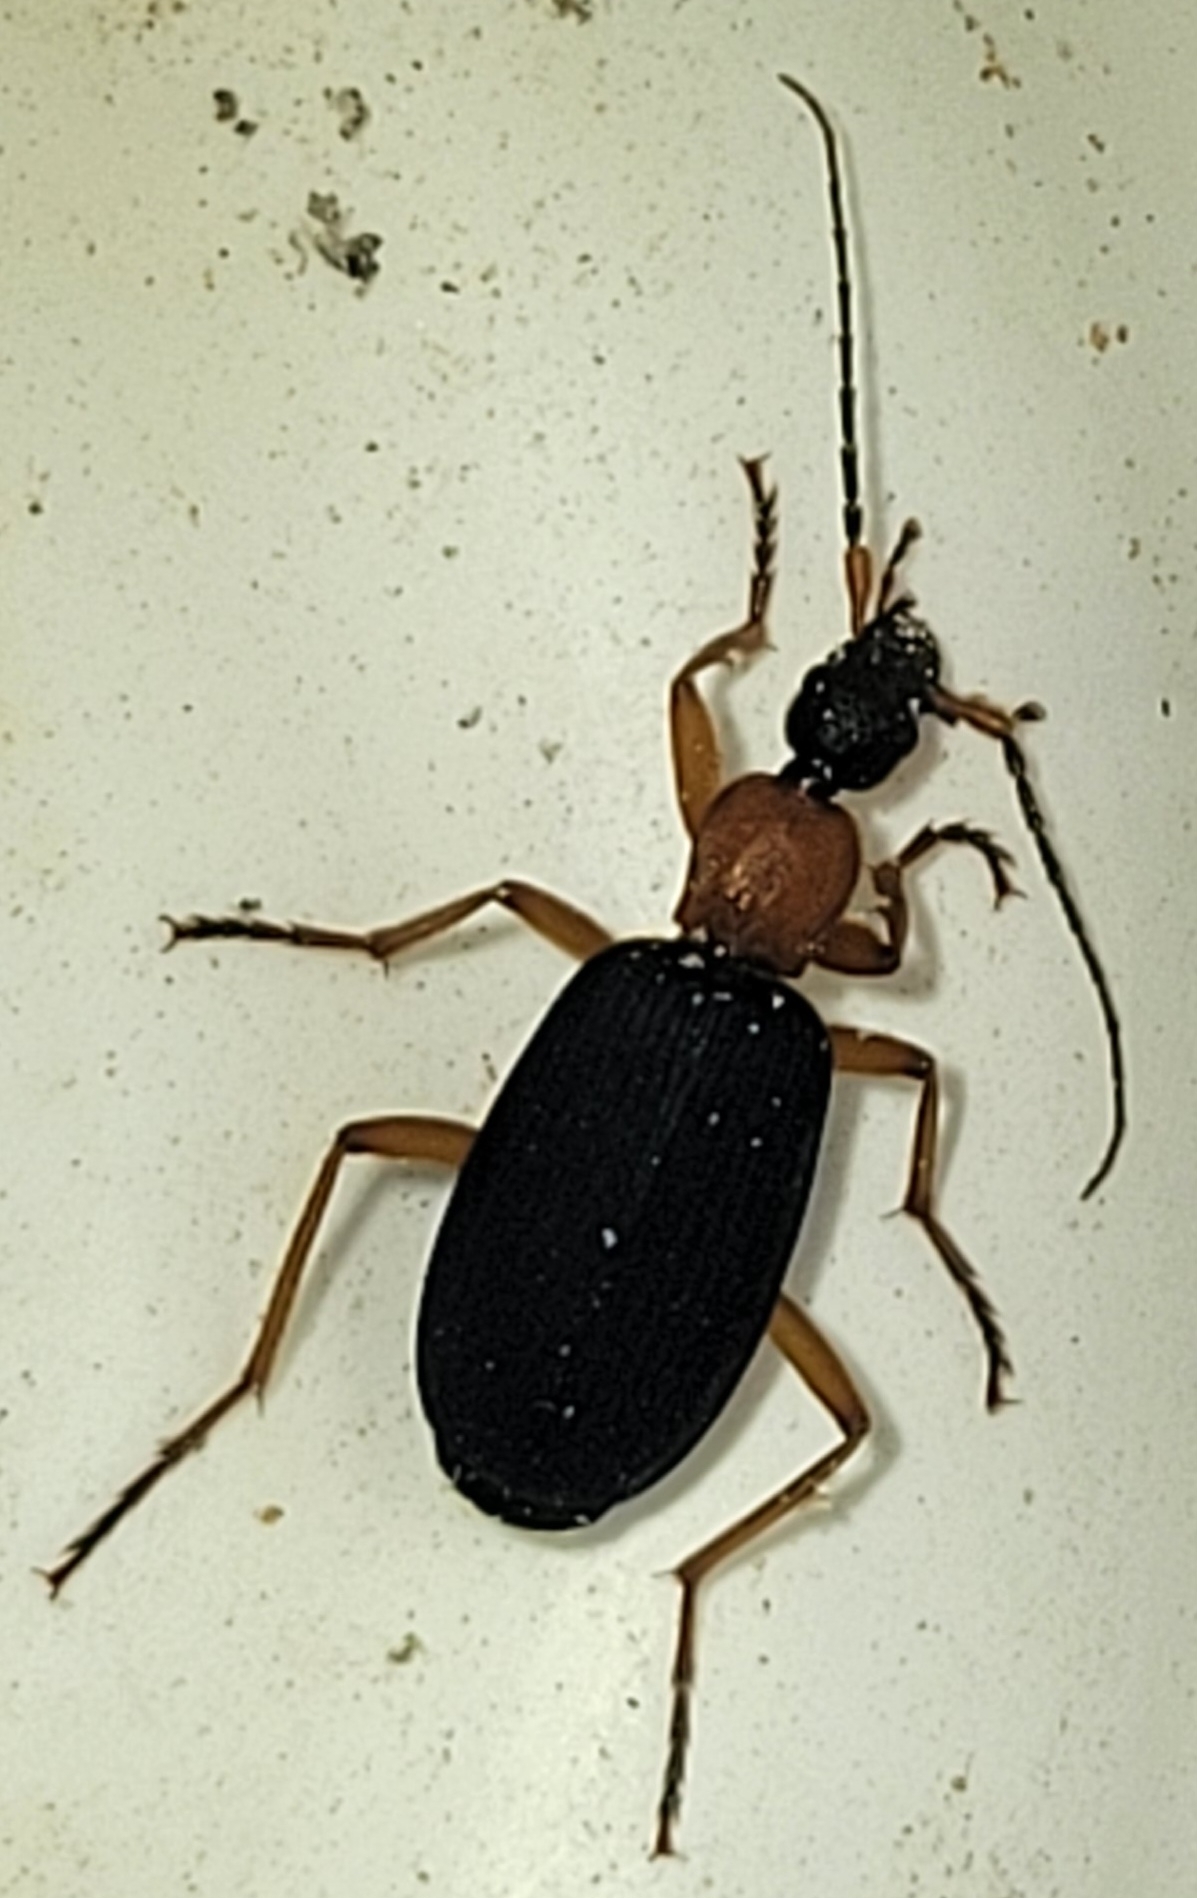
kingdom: Animalia
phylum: Arthropoda
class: Insecta
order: Coleoptera
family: Carabidae
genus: Galerita
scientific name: Galerita janus
